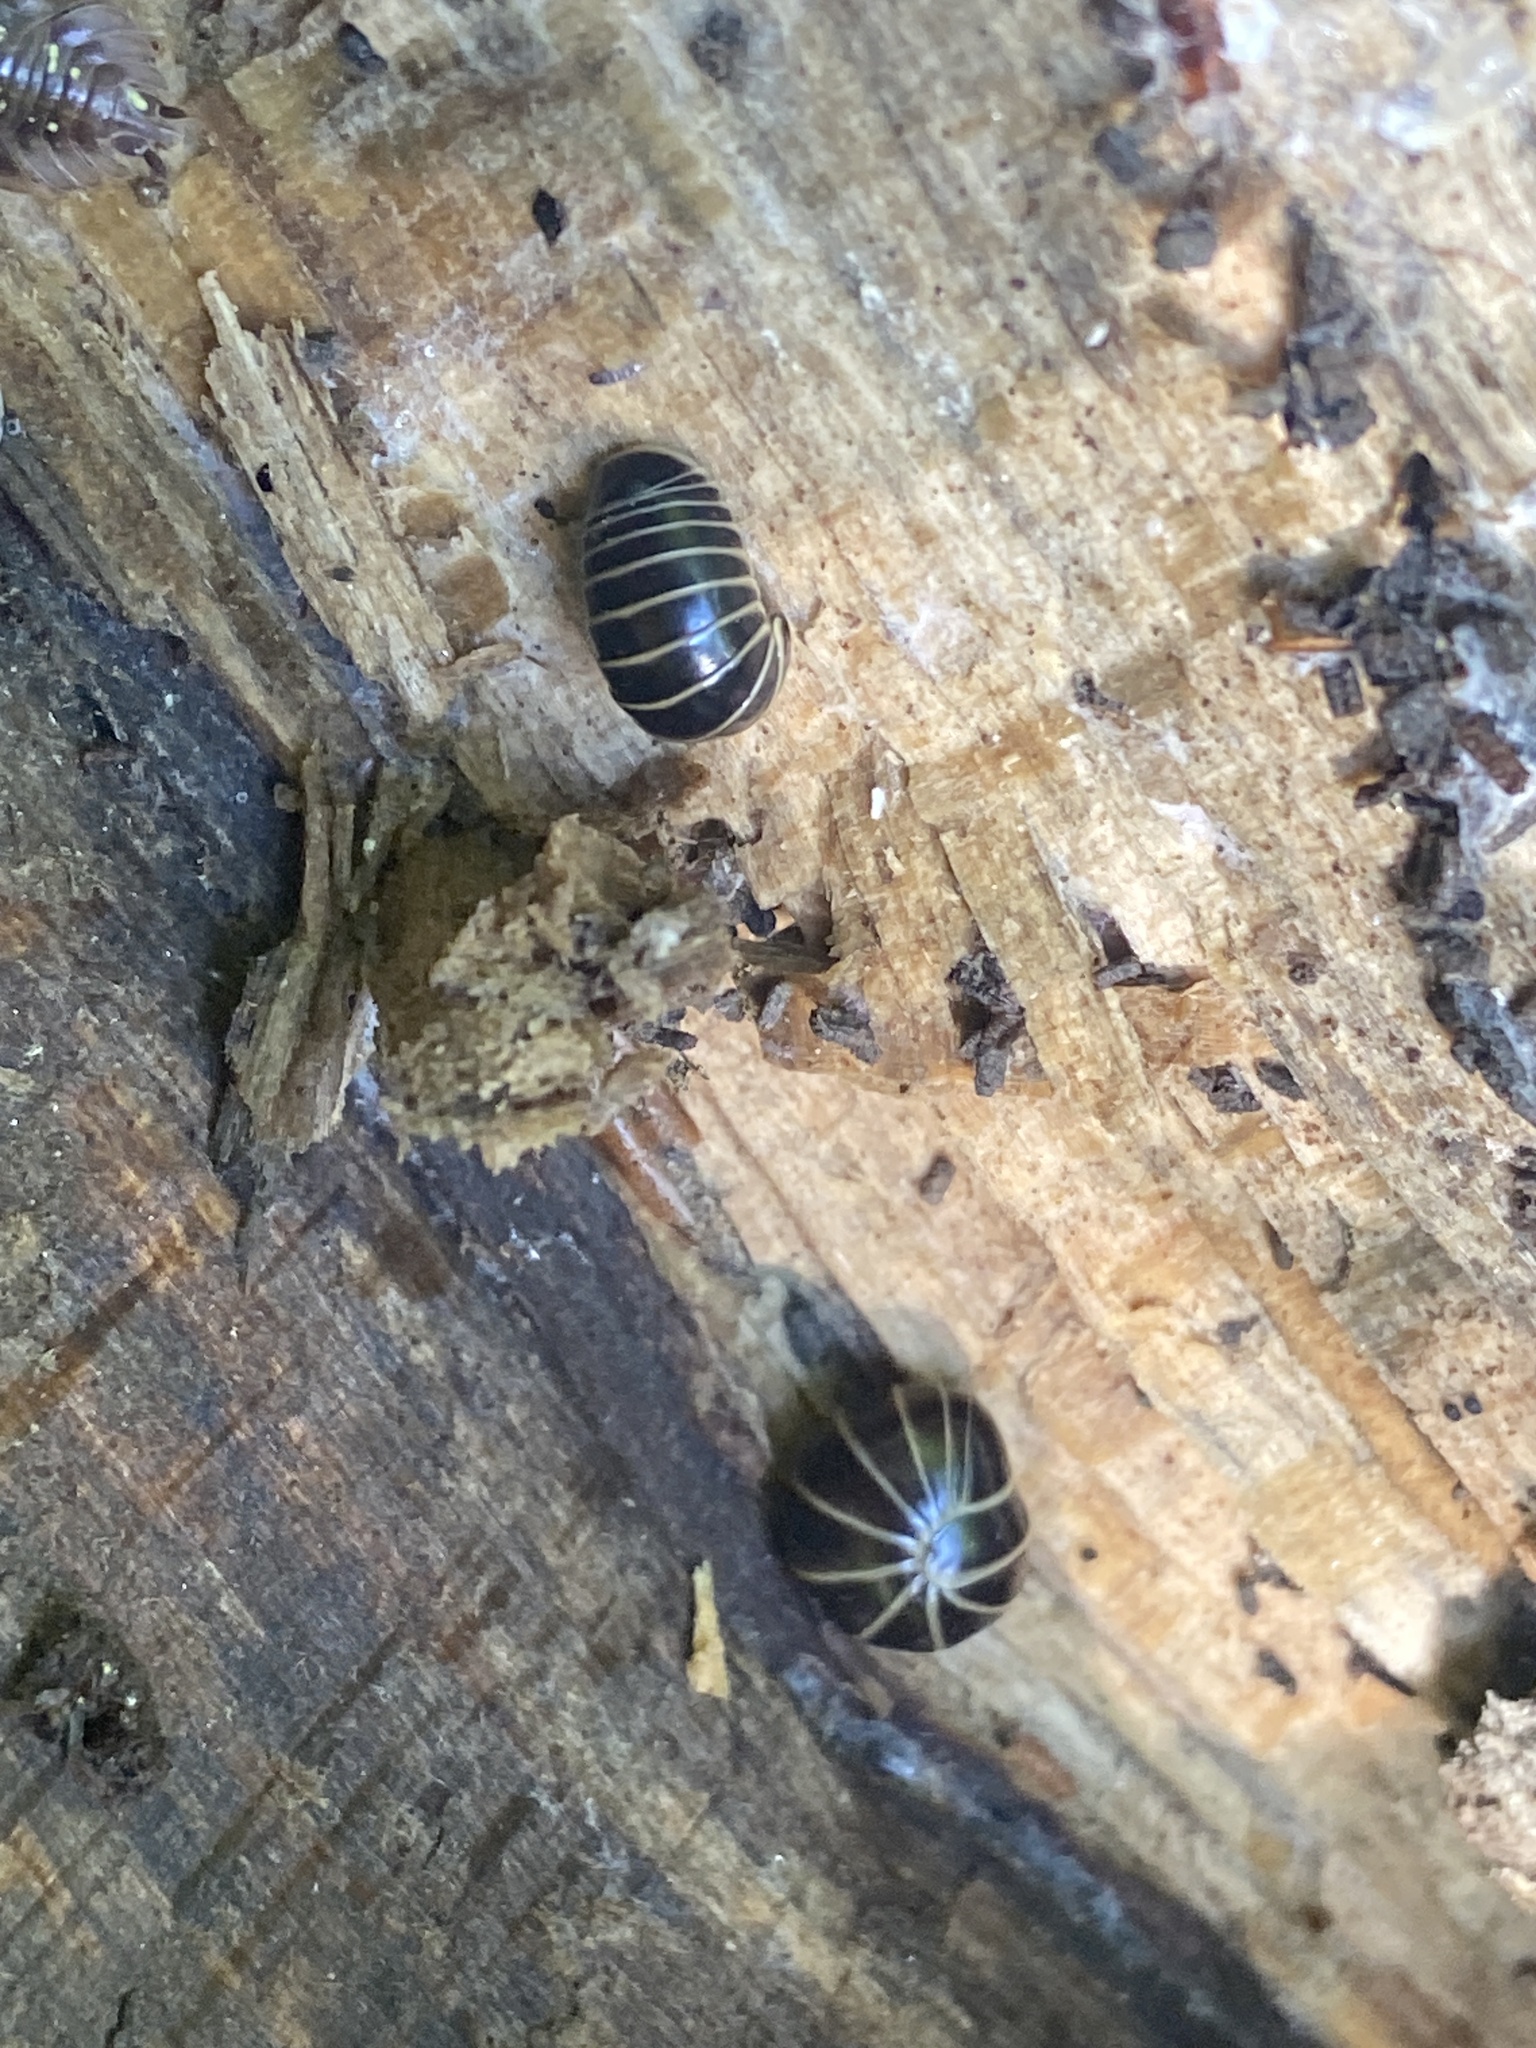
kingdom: Animalia
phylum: Arthropoda
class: Diplopoda
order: Glomerida
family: Glomeridae
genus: Glomeris
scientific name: Glomeris marginata
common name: Bordered pill millipede
